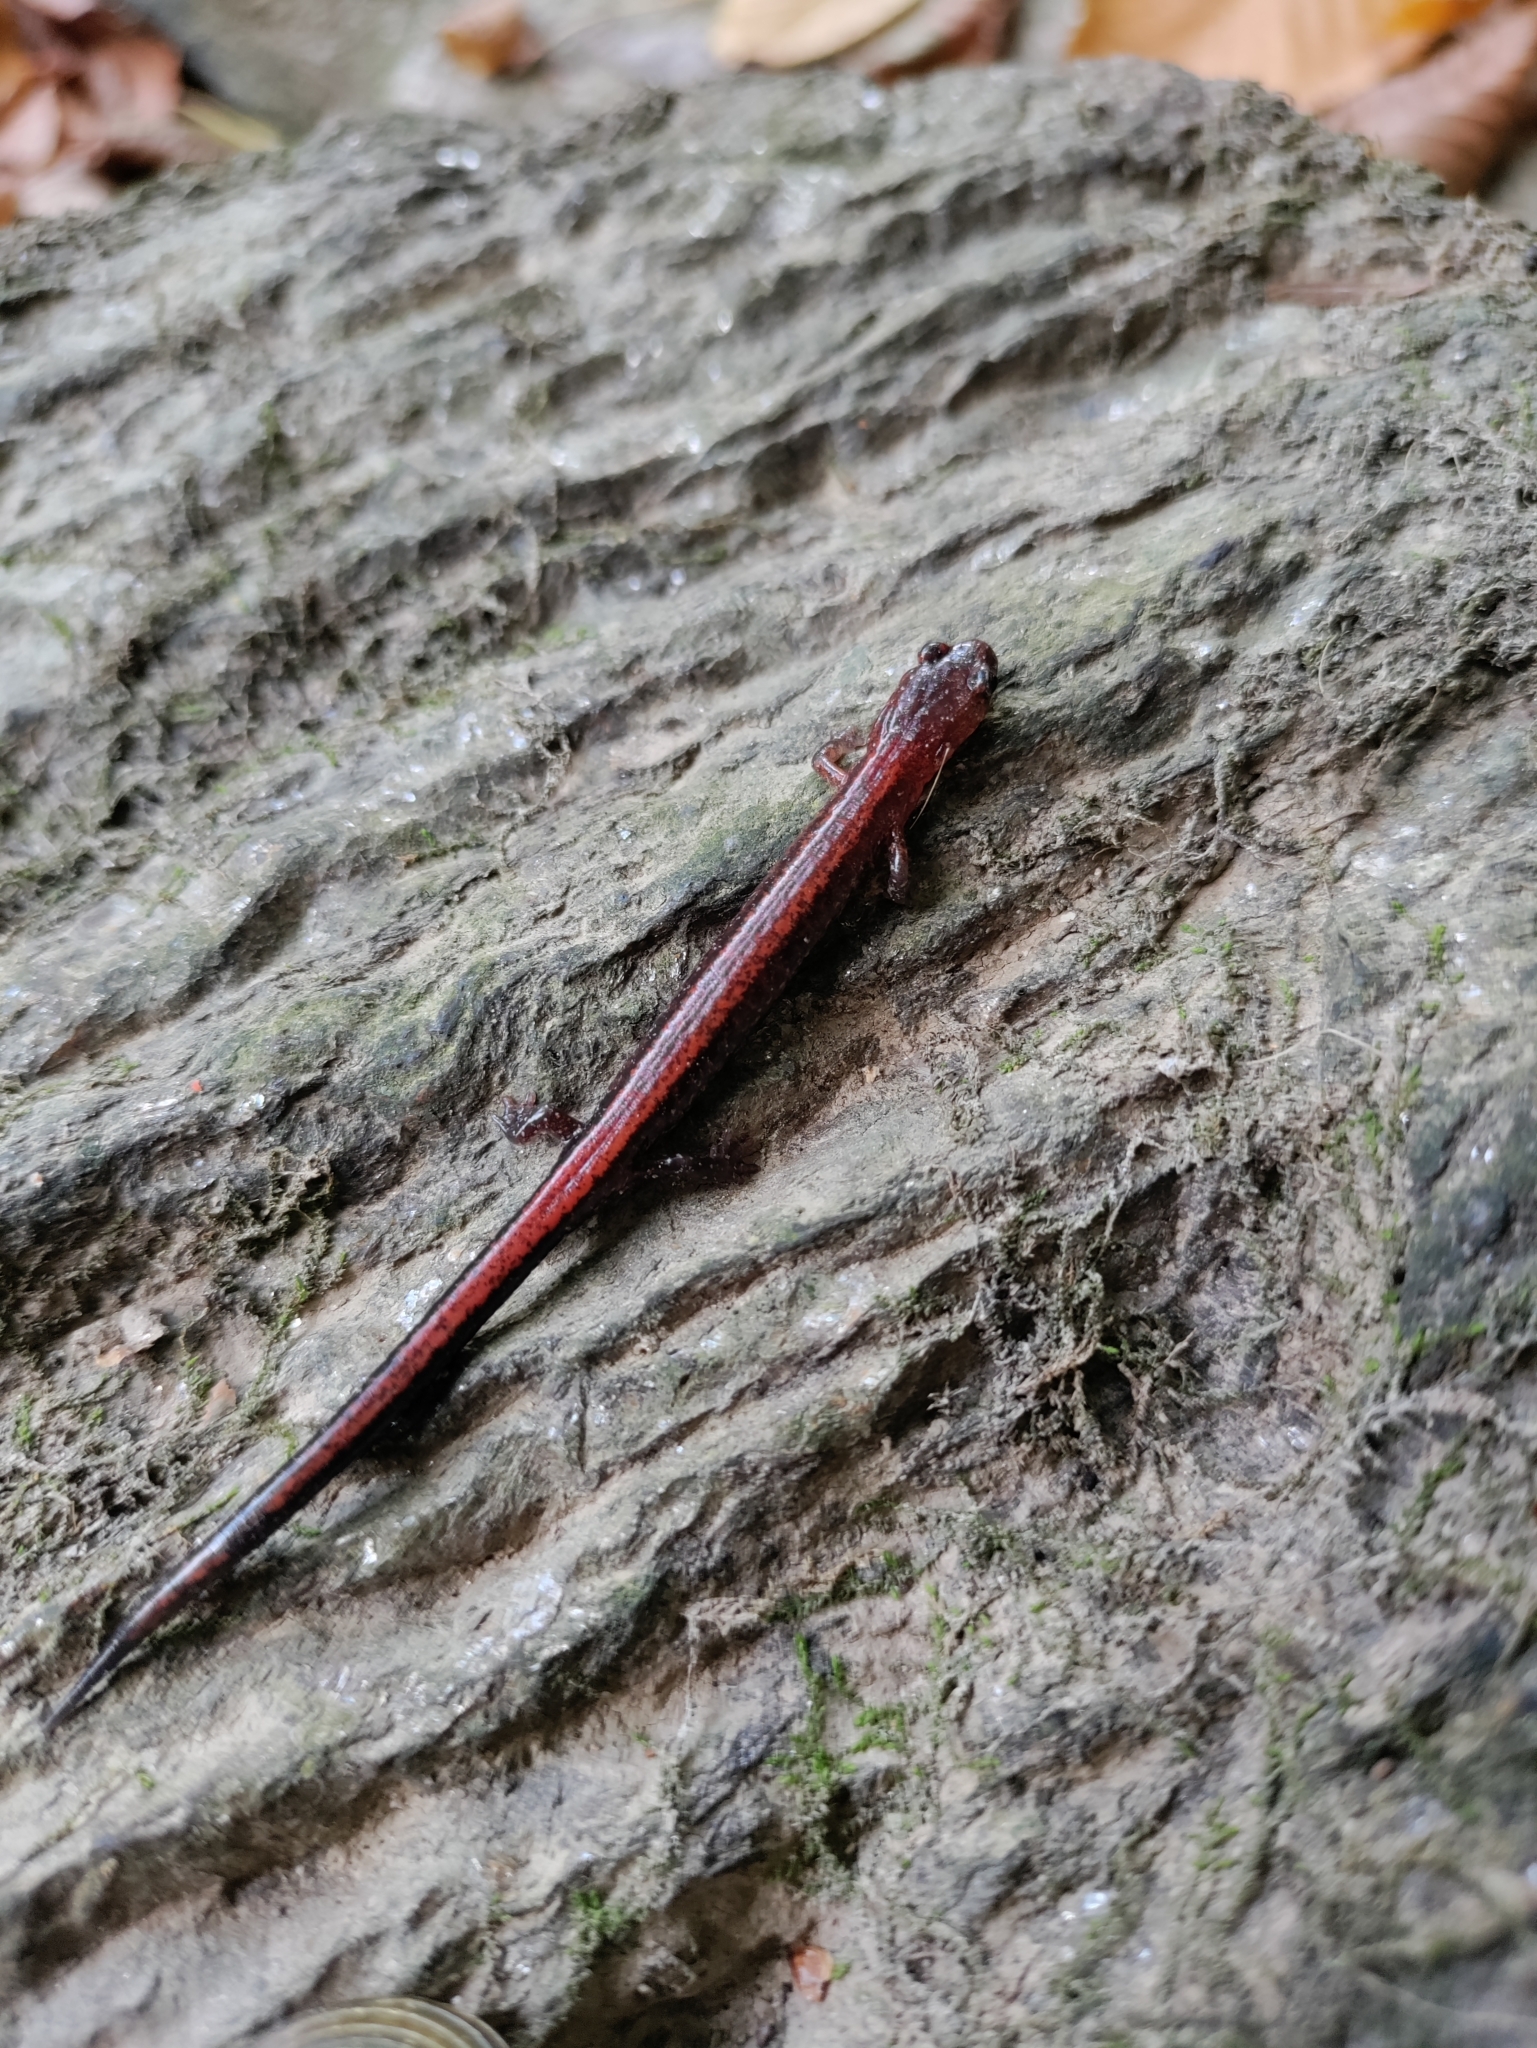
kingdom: Animalia
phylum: Chordata
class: Amphibia
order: Caudata
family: Plethodontidae
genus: Plethodon
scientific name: Plethodon cinereus
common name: Redback salamander
